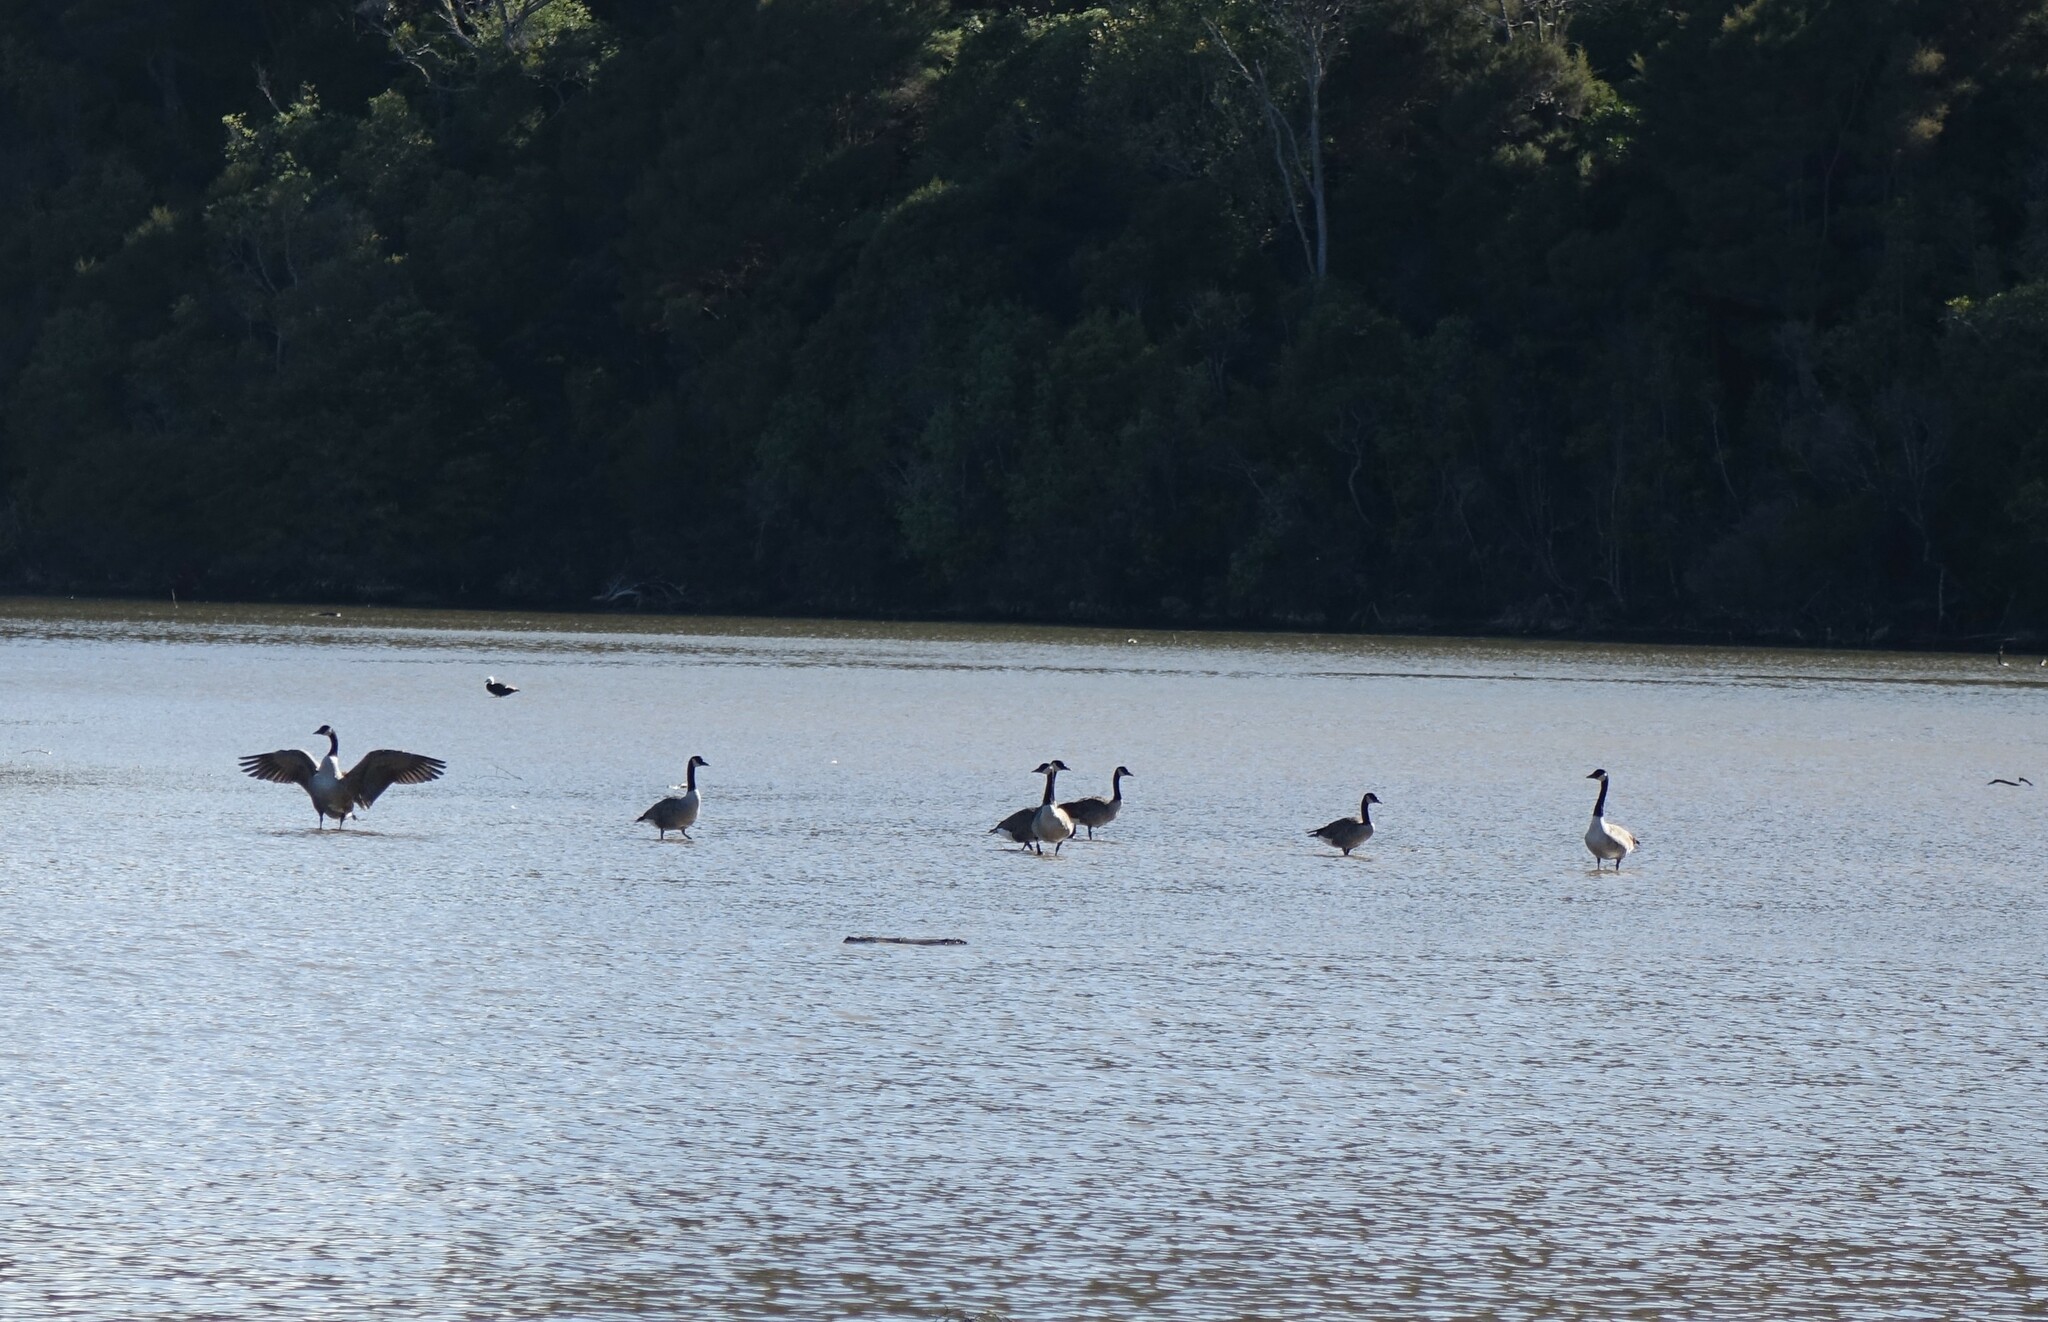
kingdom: Animalia
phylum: Chordata
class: Aves
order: Anseriformes
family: Anatidae
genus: Branta
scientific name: Branta canadensis
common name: Canada goose
